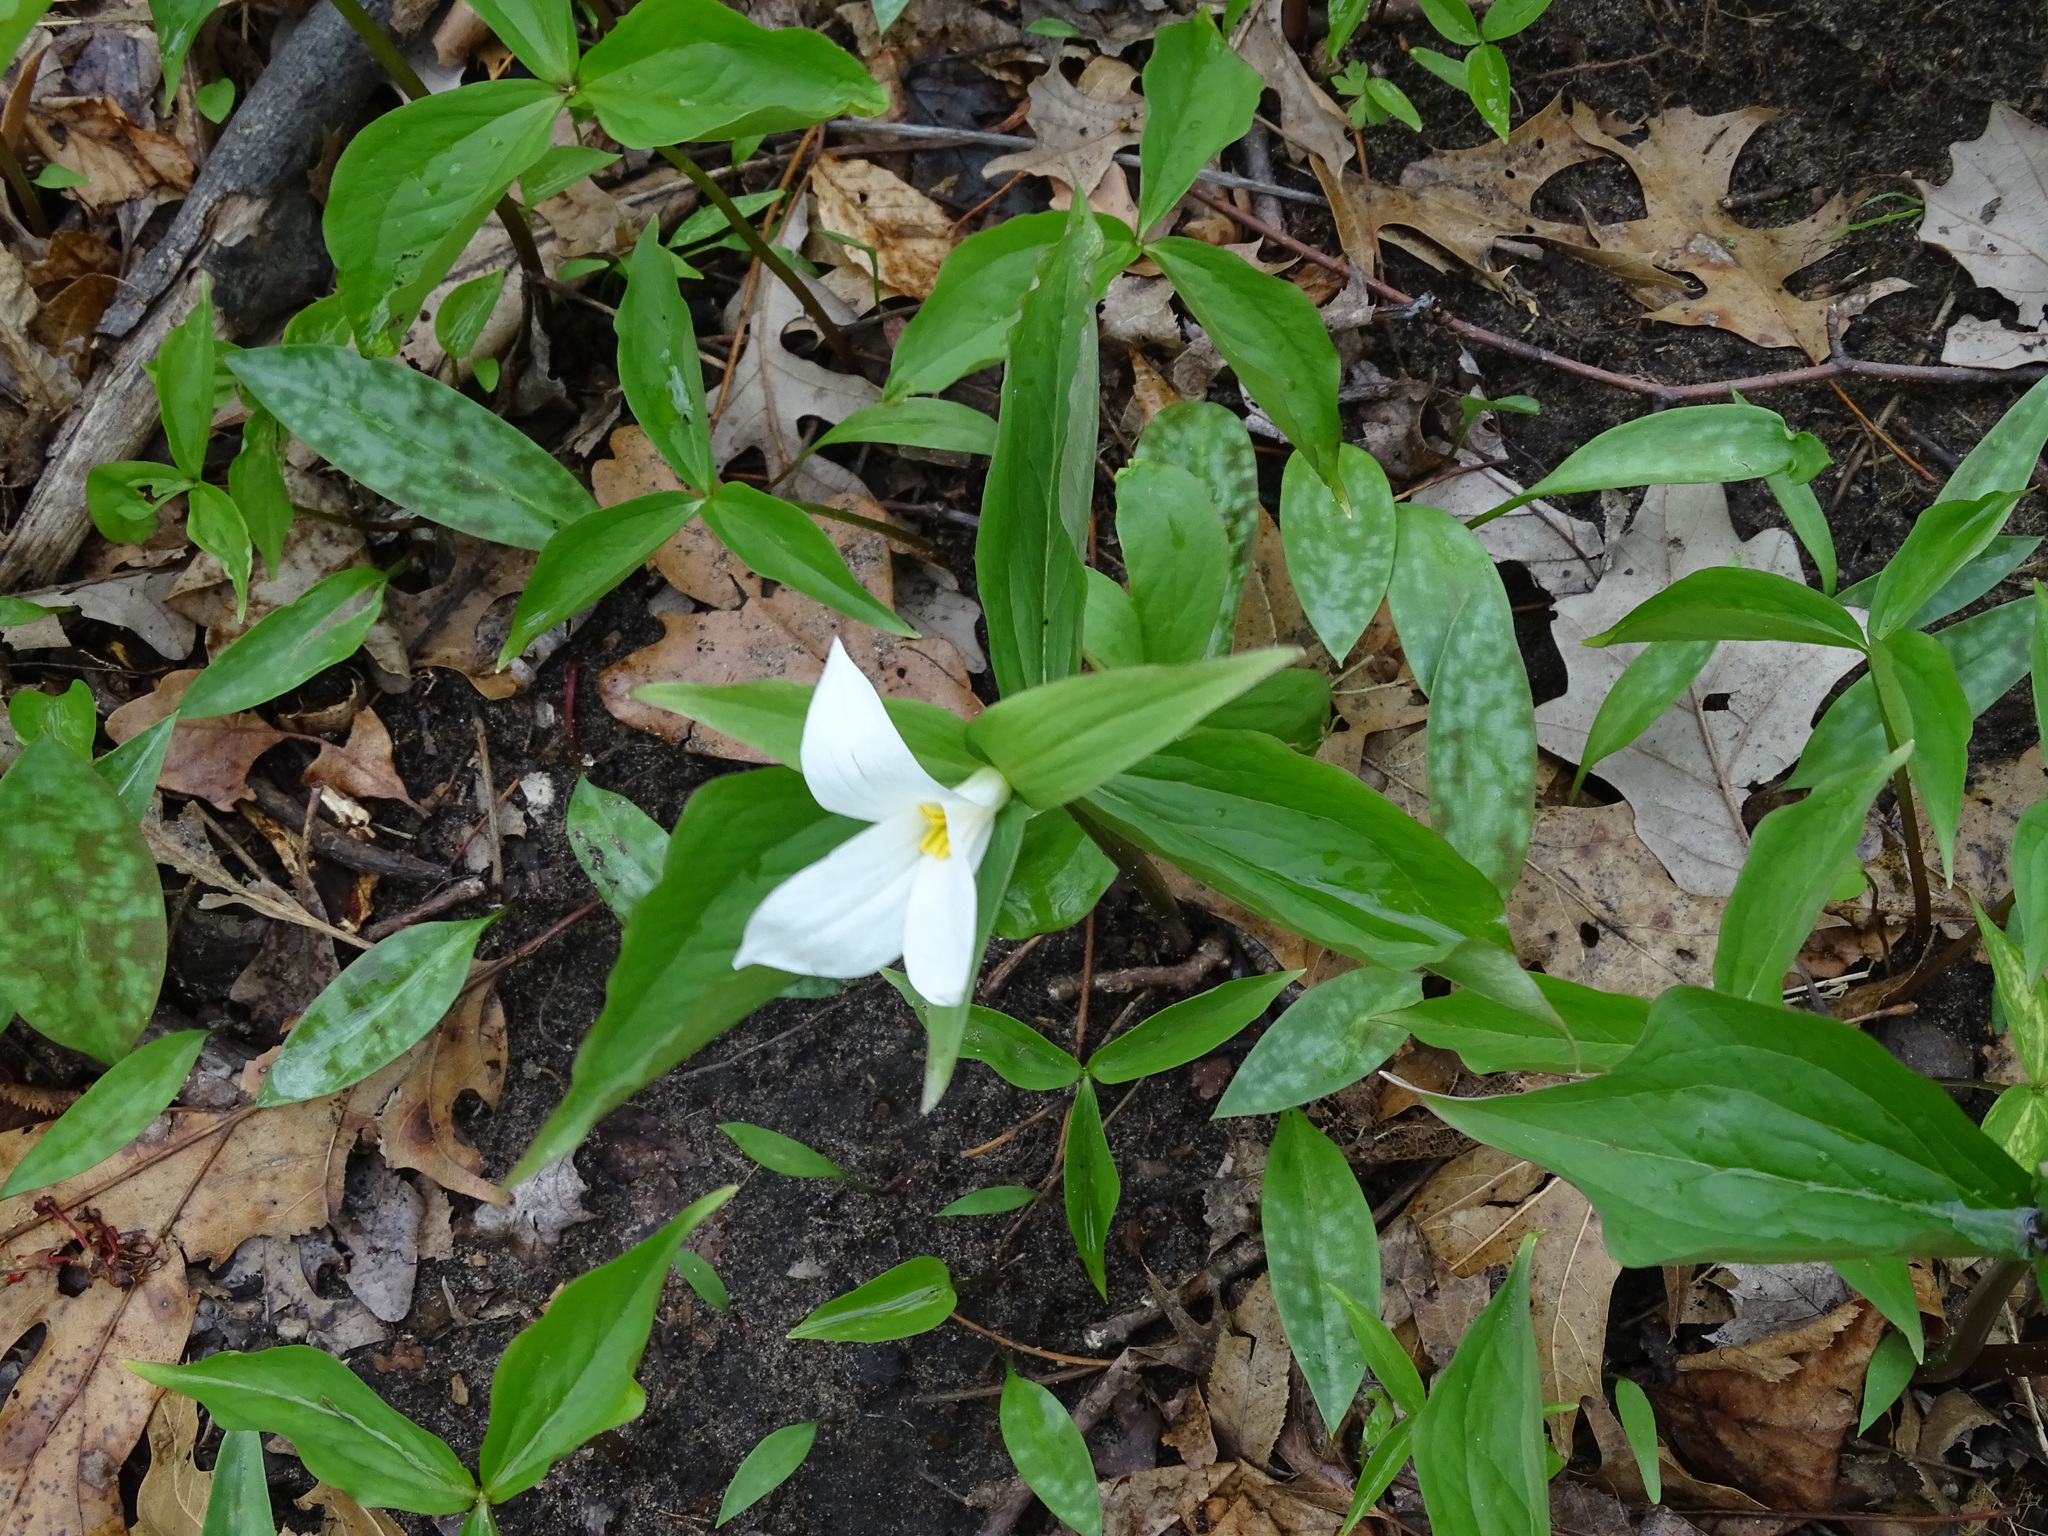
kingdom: Plantae
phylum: Tracheophyta
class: Liliopsida
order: Liliales
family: Melanthiaceae
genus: Trillium
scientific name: Trillium grandiflorum
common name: Great white trillium
